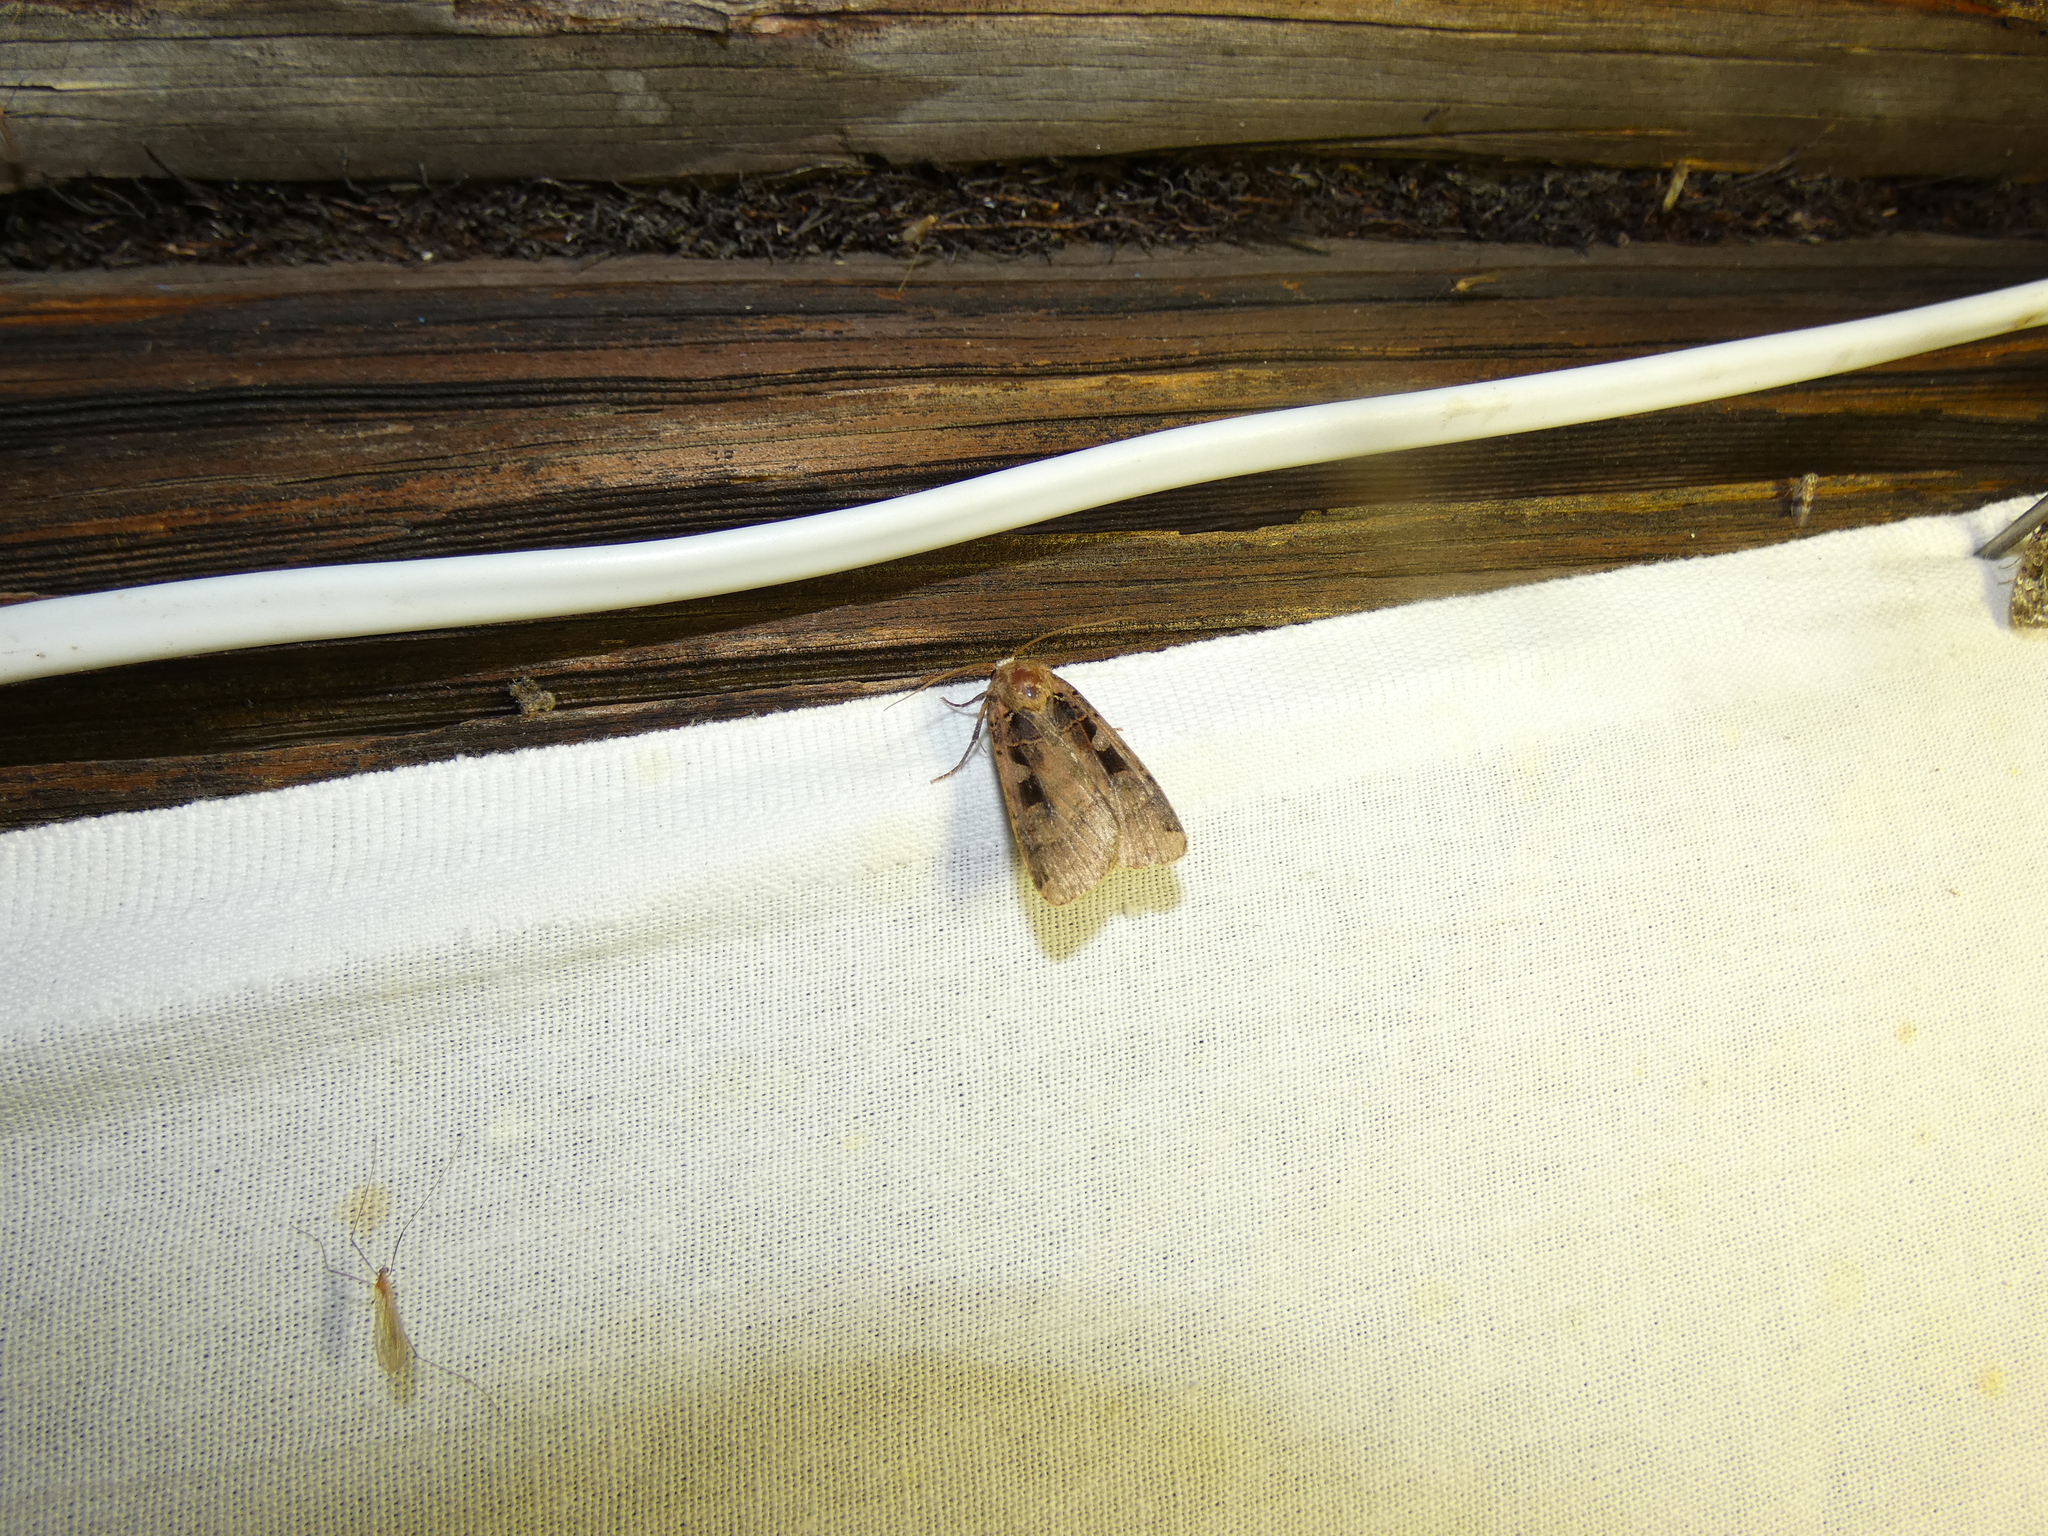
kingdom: Animalia
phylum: Arthropoda
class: Insecta
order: Lepidoptera
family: Noctuidae
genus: Xestia
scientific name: Xestia ditrapezium
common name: Triple-spotted clay
